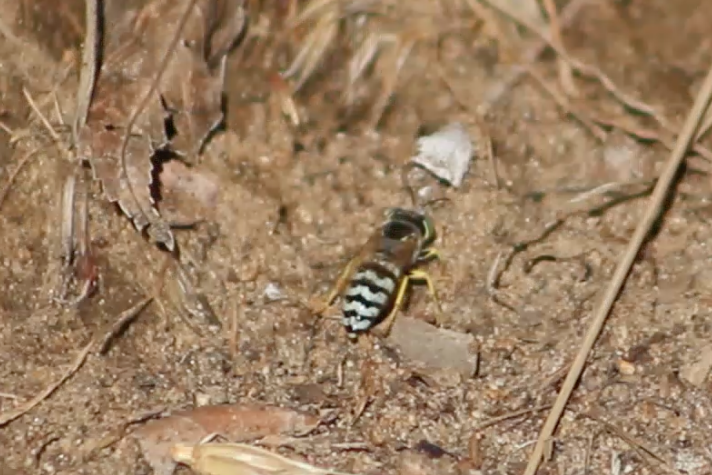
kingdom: Animalia
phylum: Arthropoda
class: Insecta
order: Hymenoptera
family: Crabronidae
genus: Bembix
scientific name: Bembix americana
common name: American sand wasp
